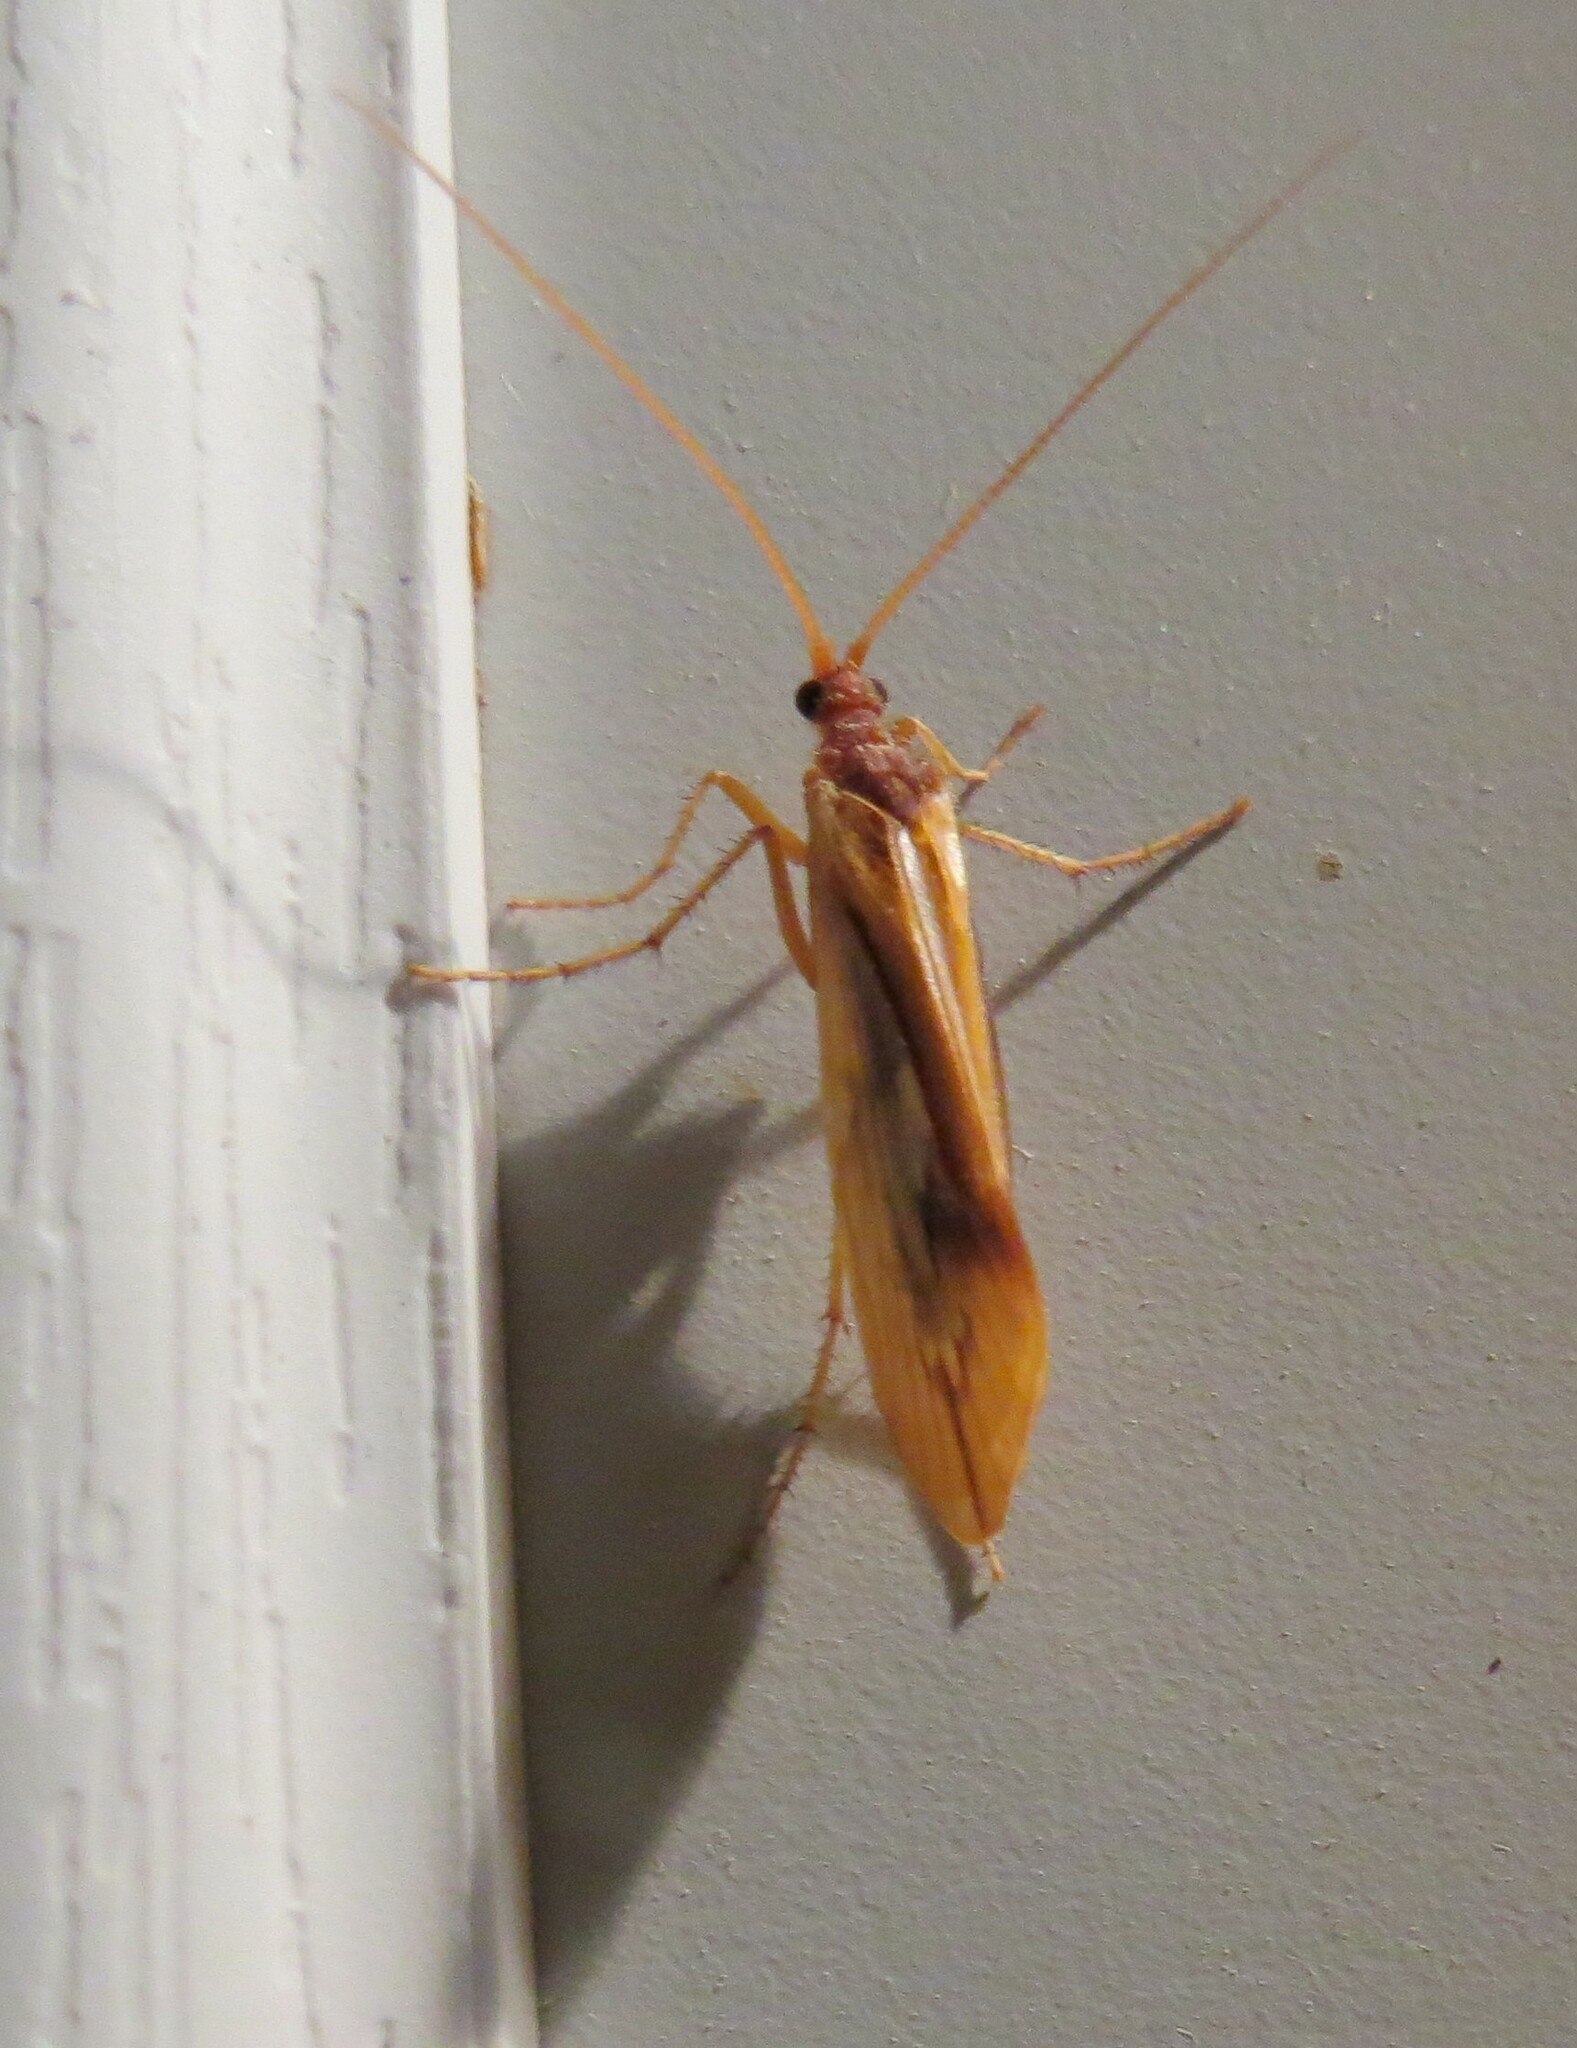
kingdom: Animalia
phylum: Arthropoda
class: Insecta
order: Trichoptera
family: Limnephilidae
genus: Platycentropus
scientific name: Platycentropus radiatus
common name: Chocolate-and-cream sedge
